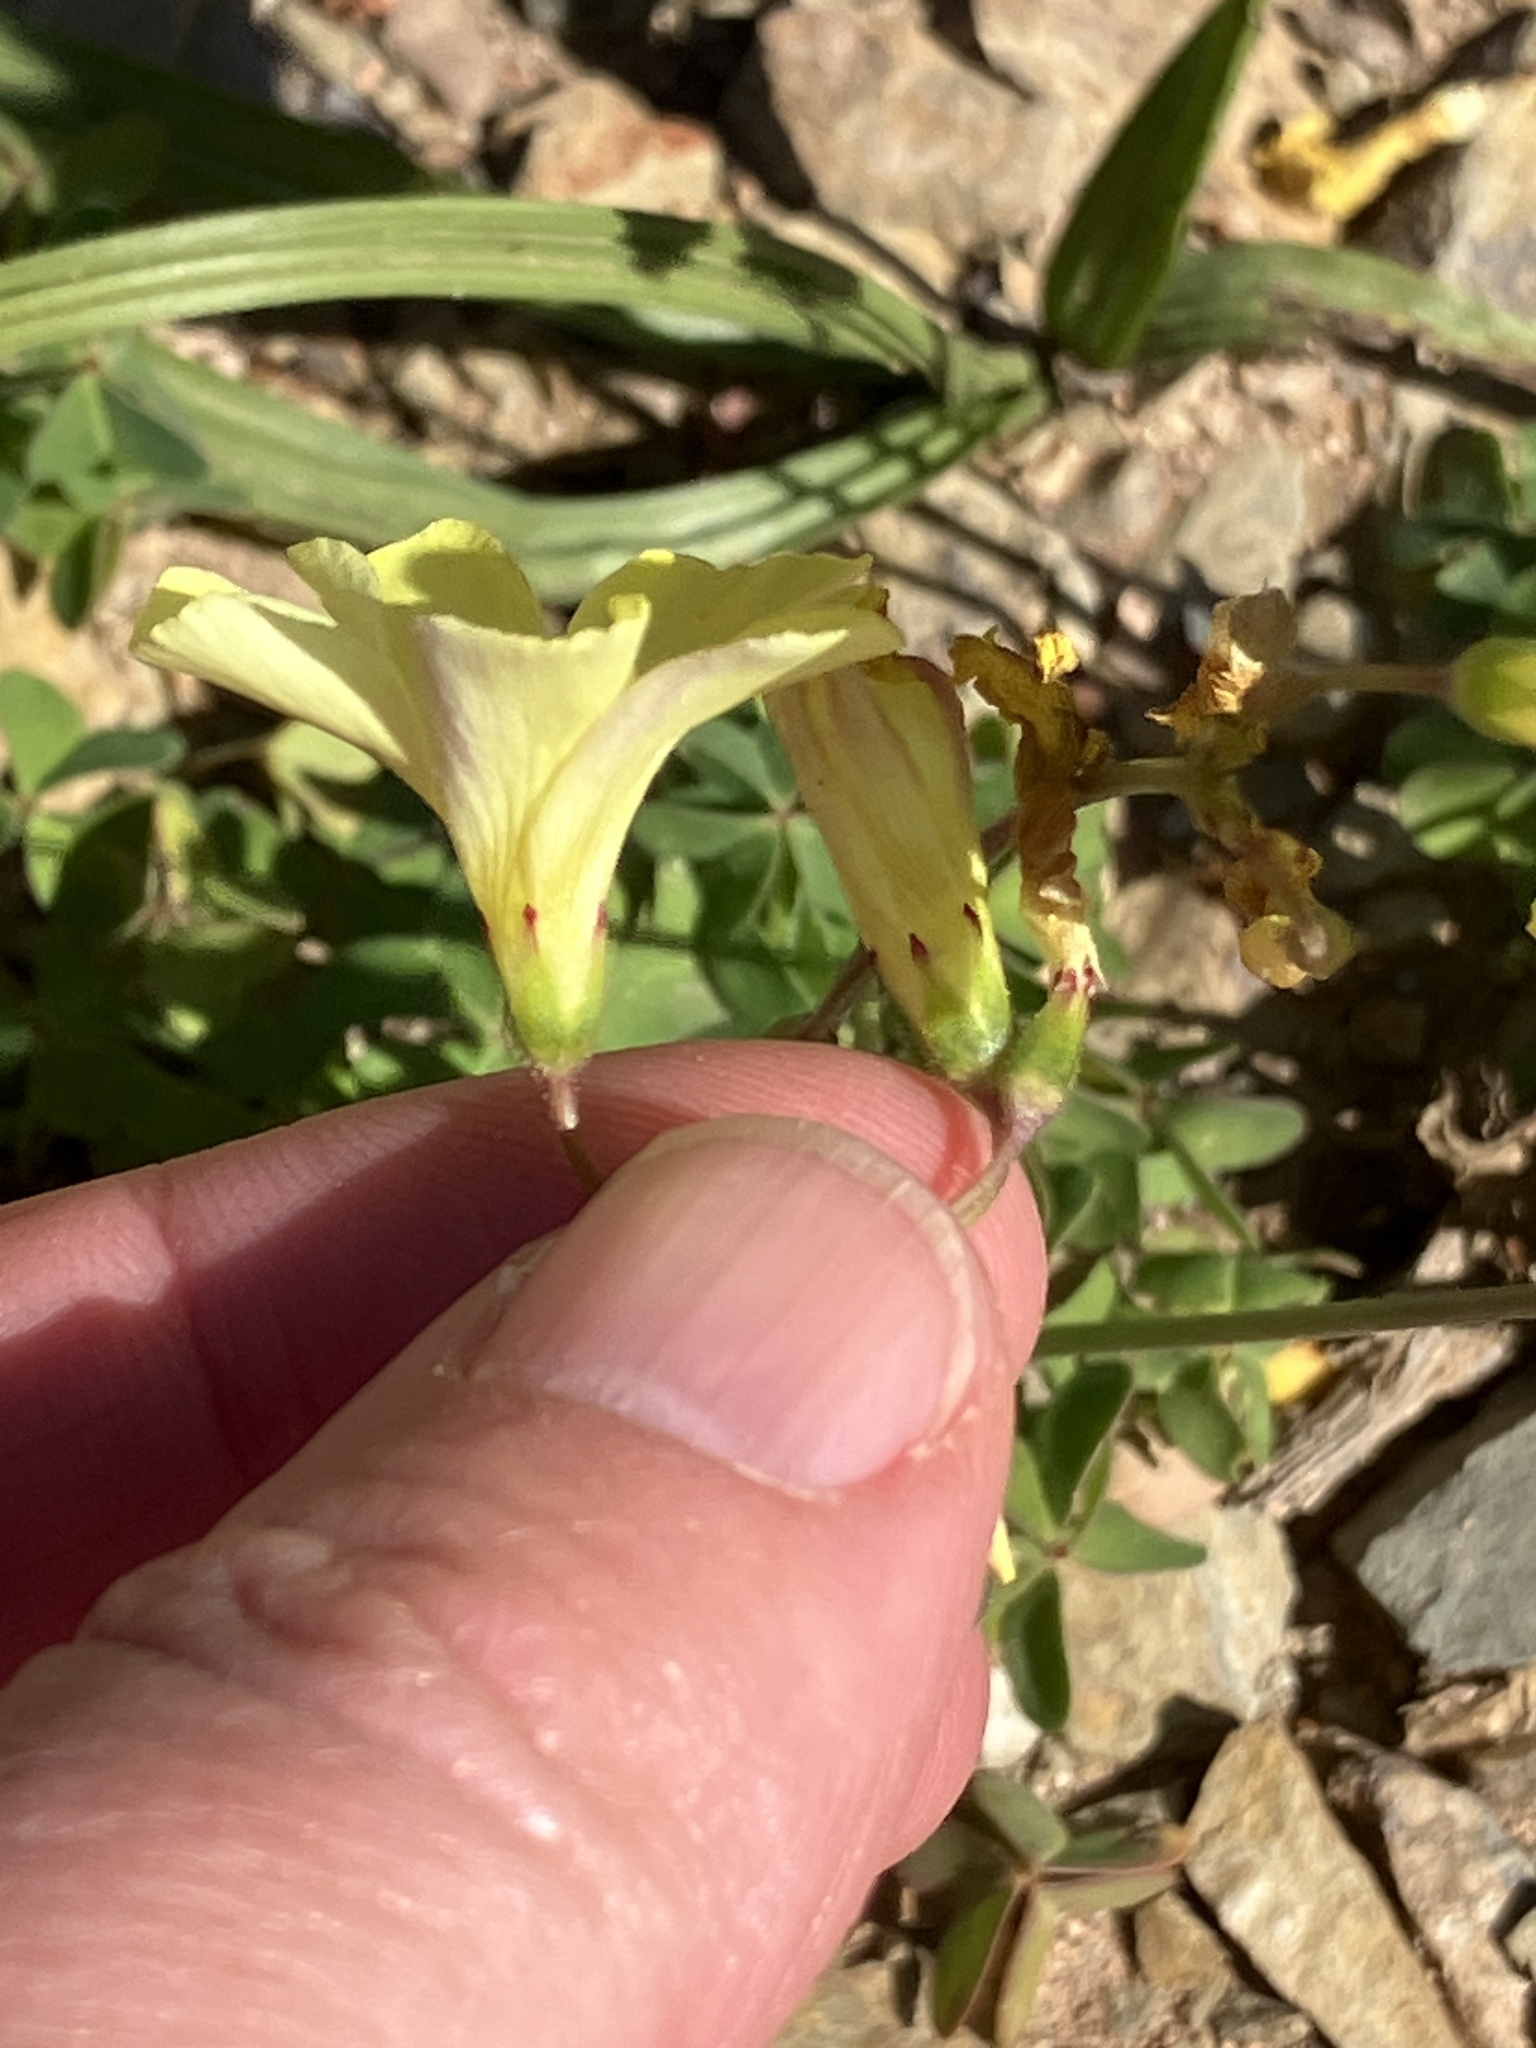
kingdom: Plantae
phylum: Tracheophyta
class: Magnoliopsida
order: Oxalidales
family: Oxalidaceae
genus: Oxalis
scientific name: Oxalis pes-caprae
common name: Bermuda-buttercup
